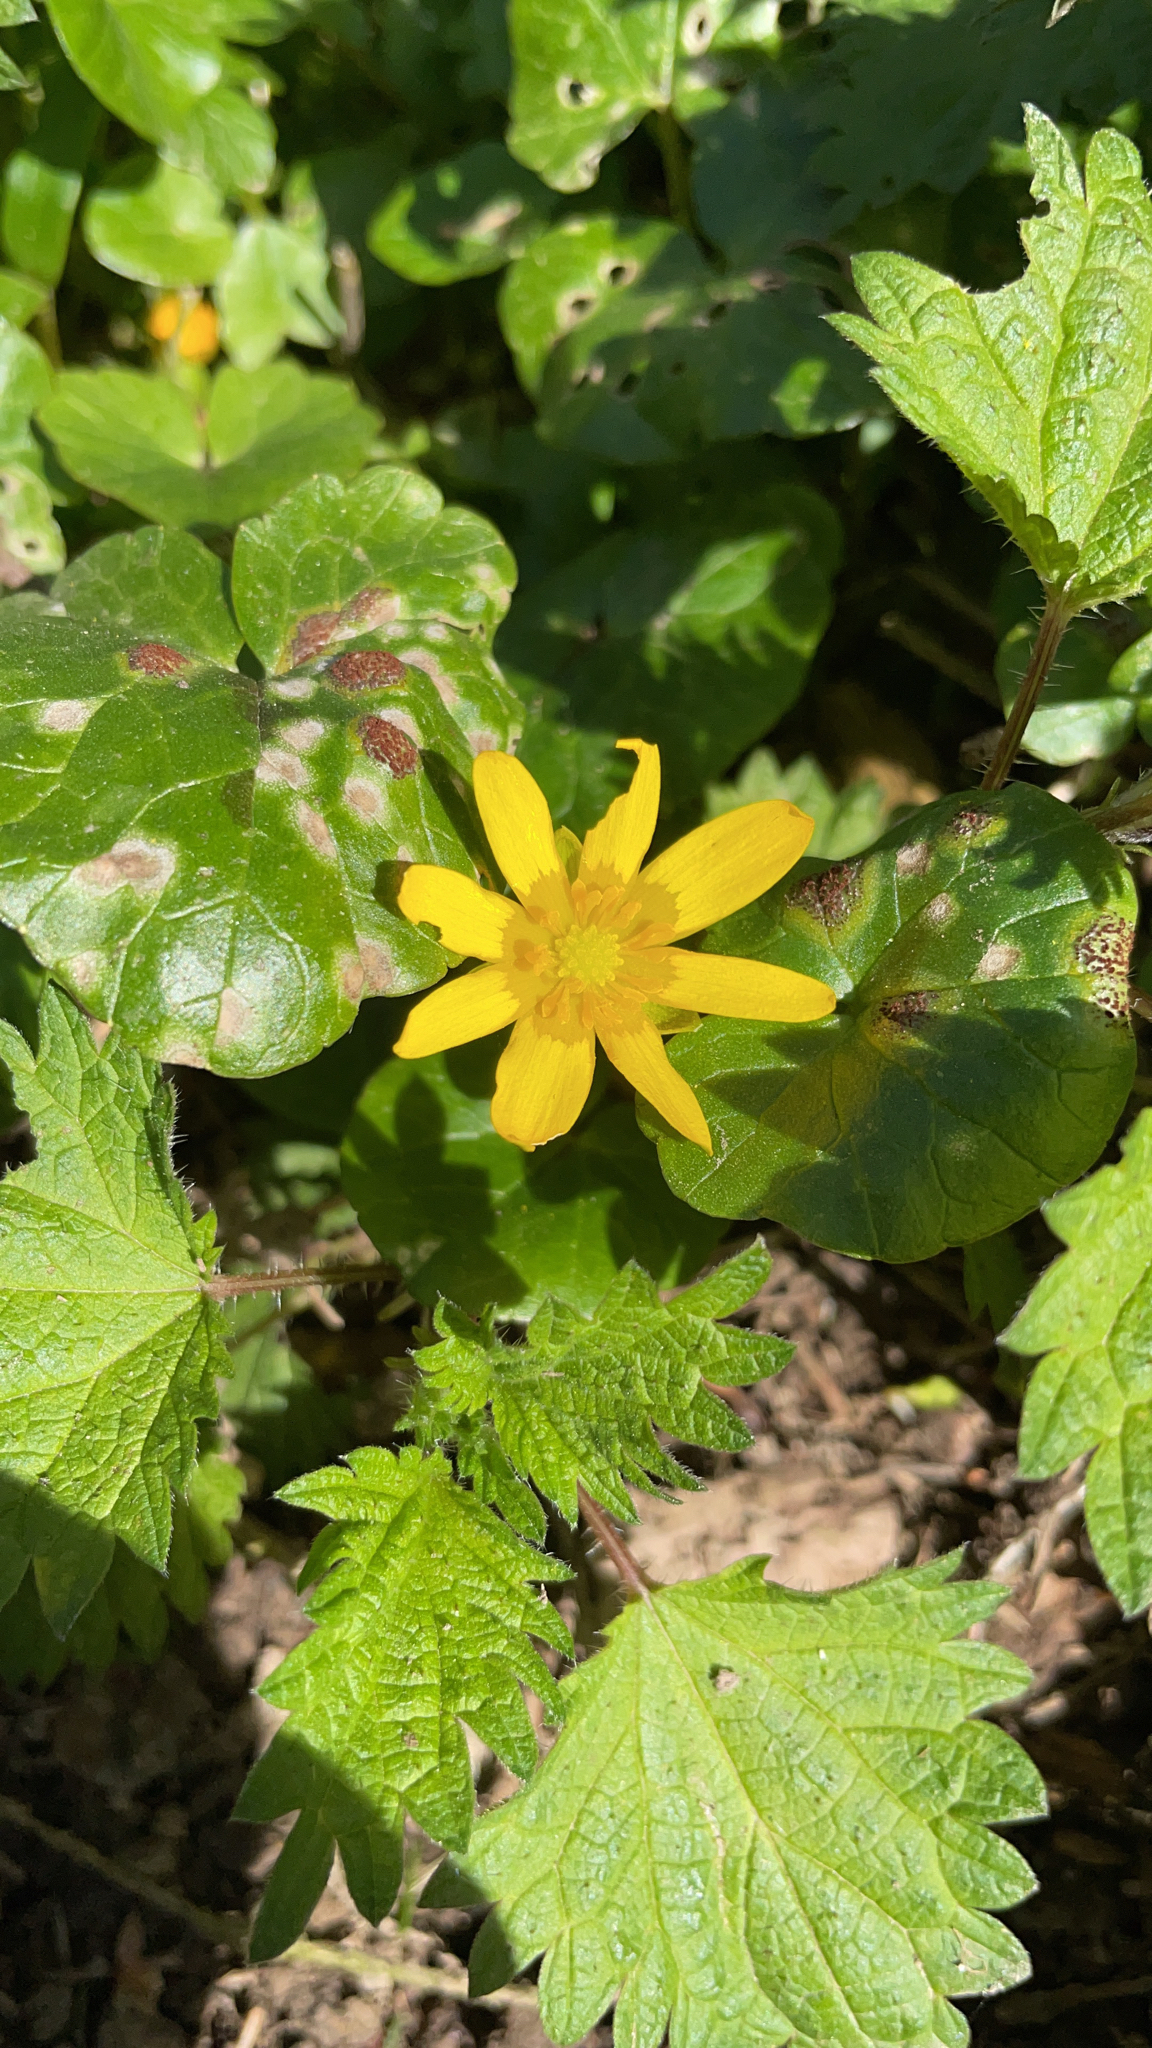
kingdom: Plantae
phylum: Tracheophyta
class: Magnoliopsida
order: Ranunculales
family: Ranunculaceae
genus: Ficaria
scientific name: Ficaria verna
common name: Lesser celandine
